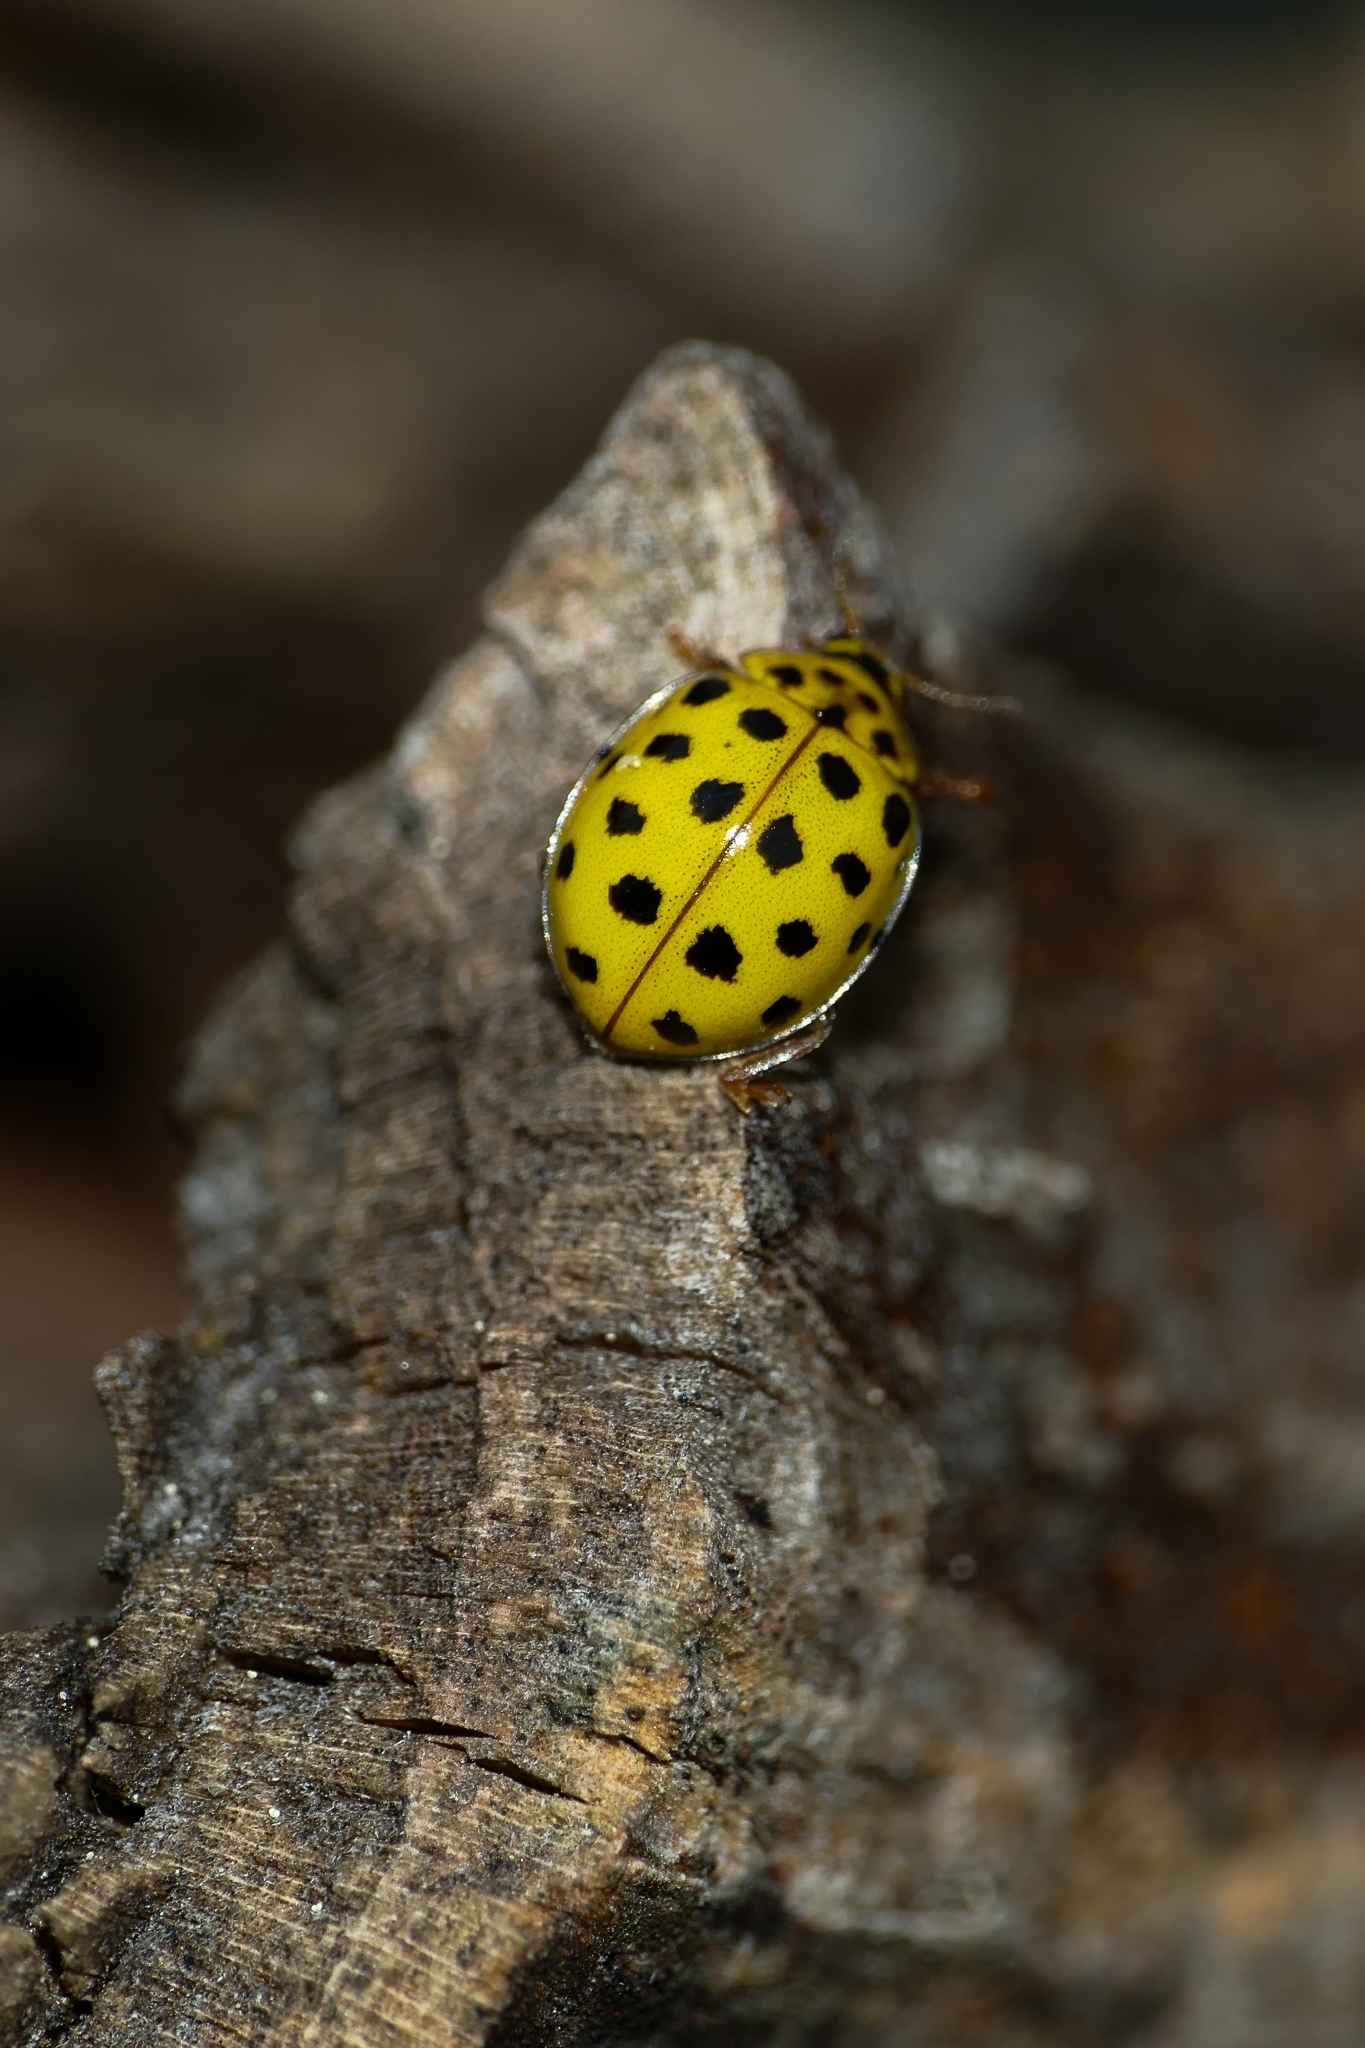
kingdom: Animalia
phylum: Arthropoda
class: Insecta
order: Coleoptera
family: Coccinellidae
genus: Psyllobora
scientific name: Psyllobora vigintiduopunctata
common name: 22-spot ladybird
